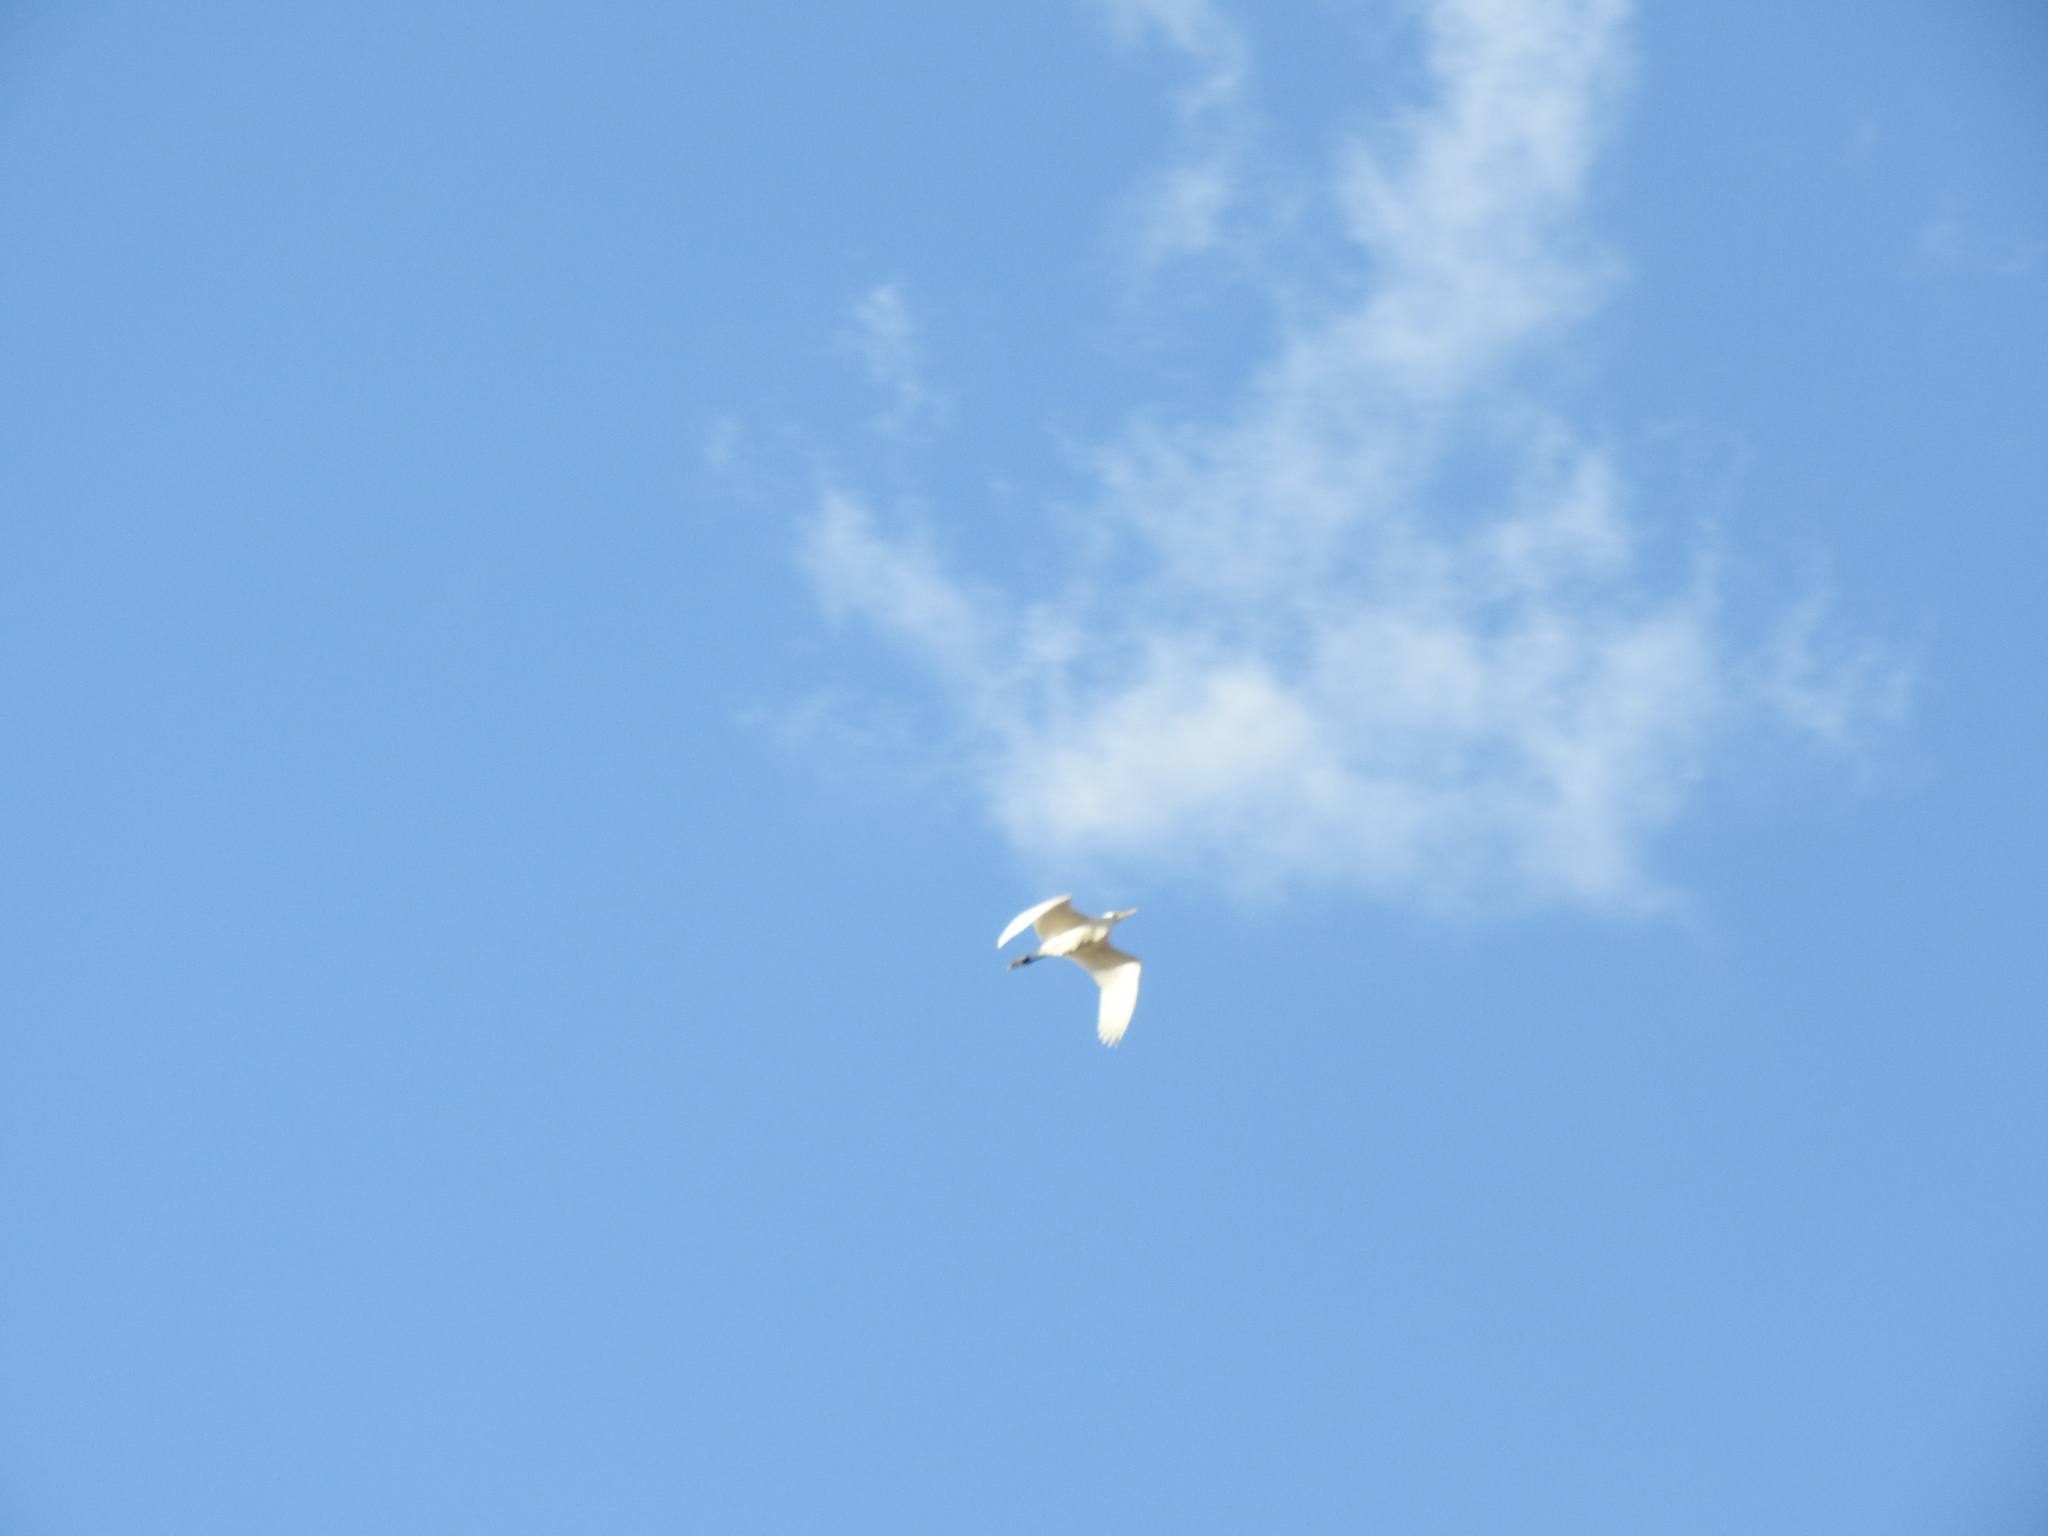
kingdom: Animalia
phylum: Chordata
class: Aves
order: Pelecaniformes
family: Ardeidae
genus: Bubulcus
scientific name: Bubulcus ibis
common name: Cattle egret
